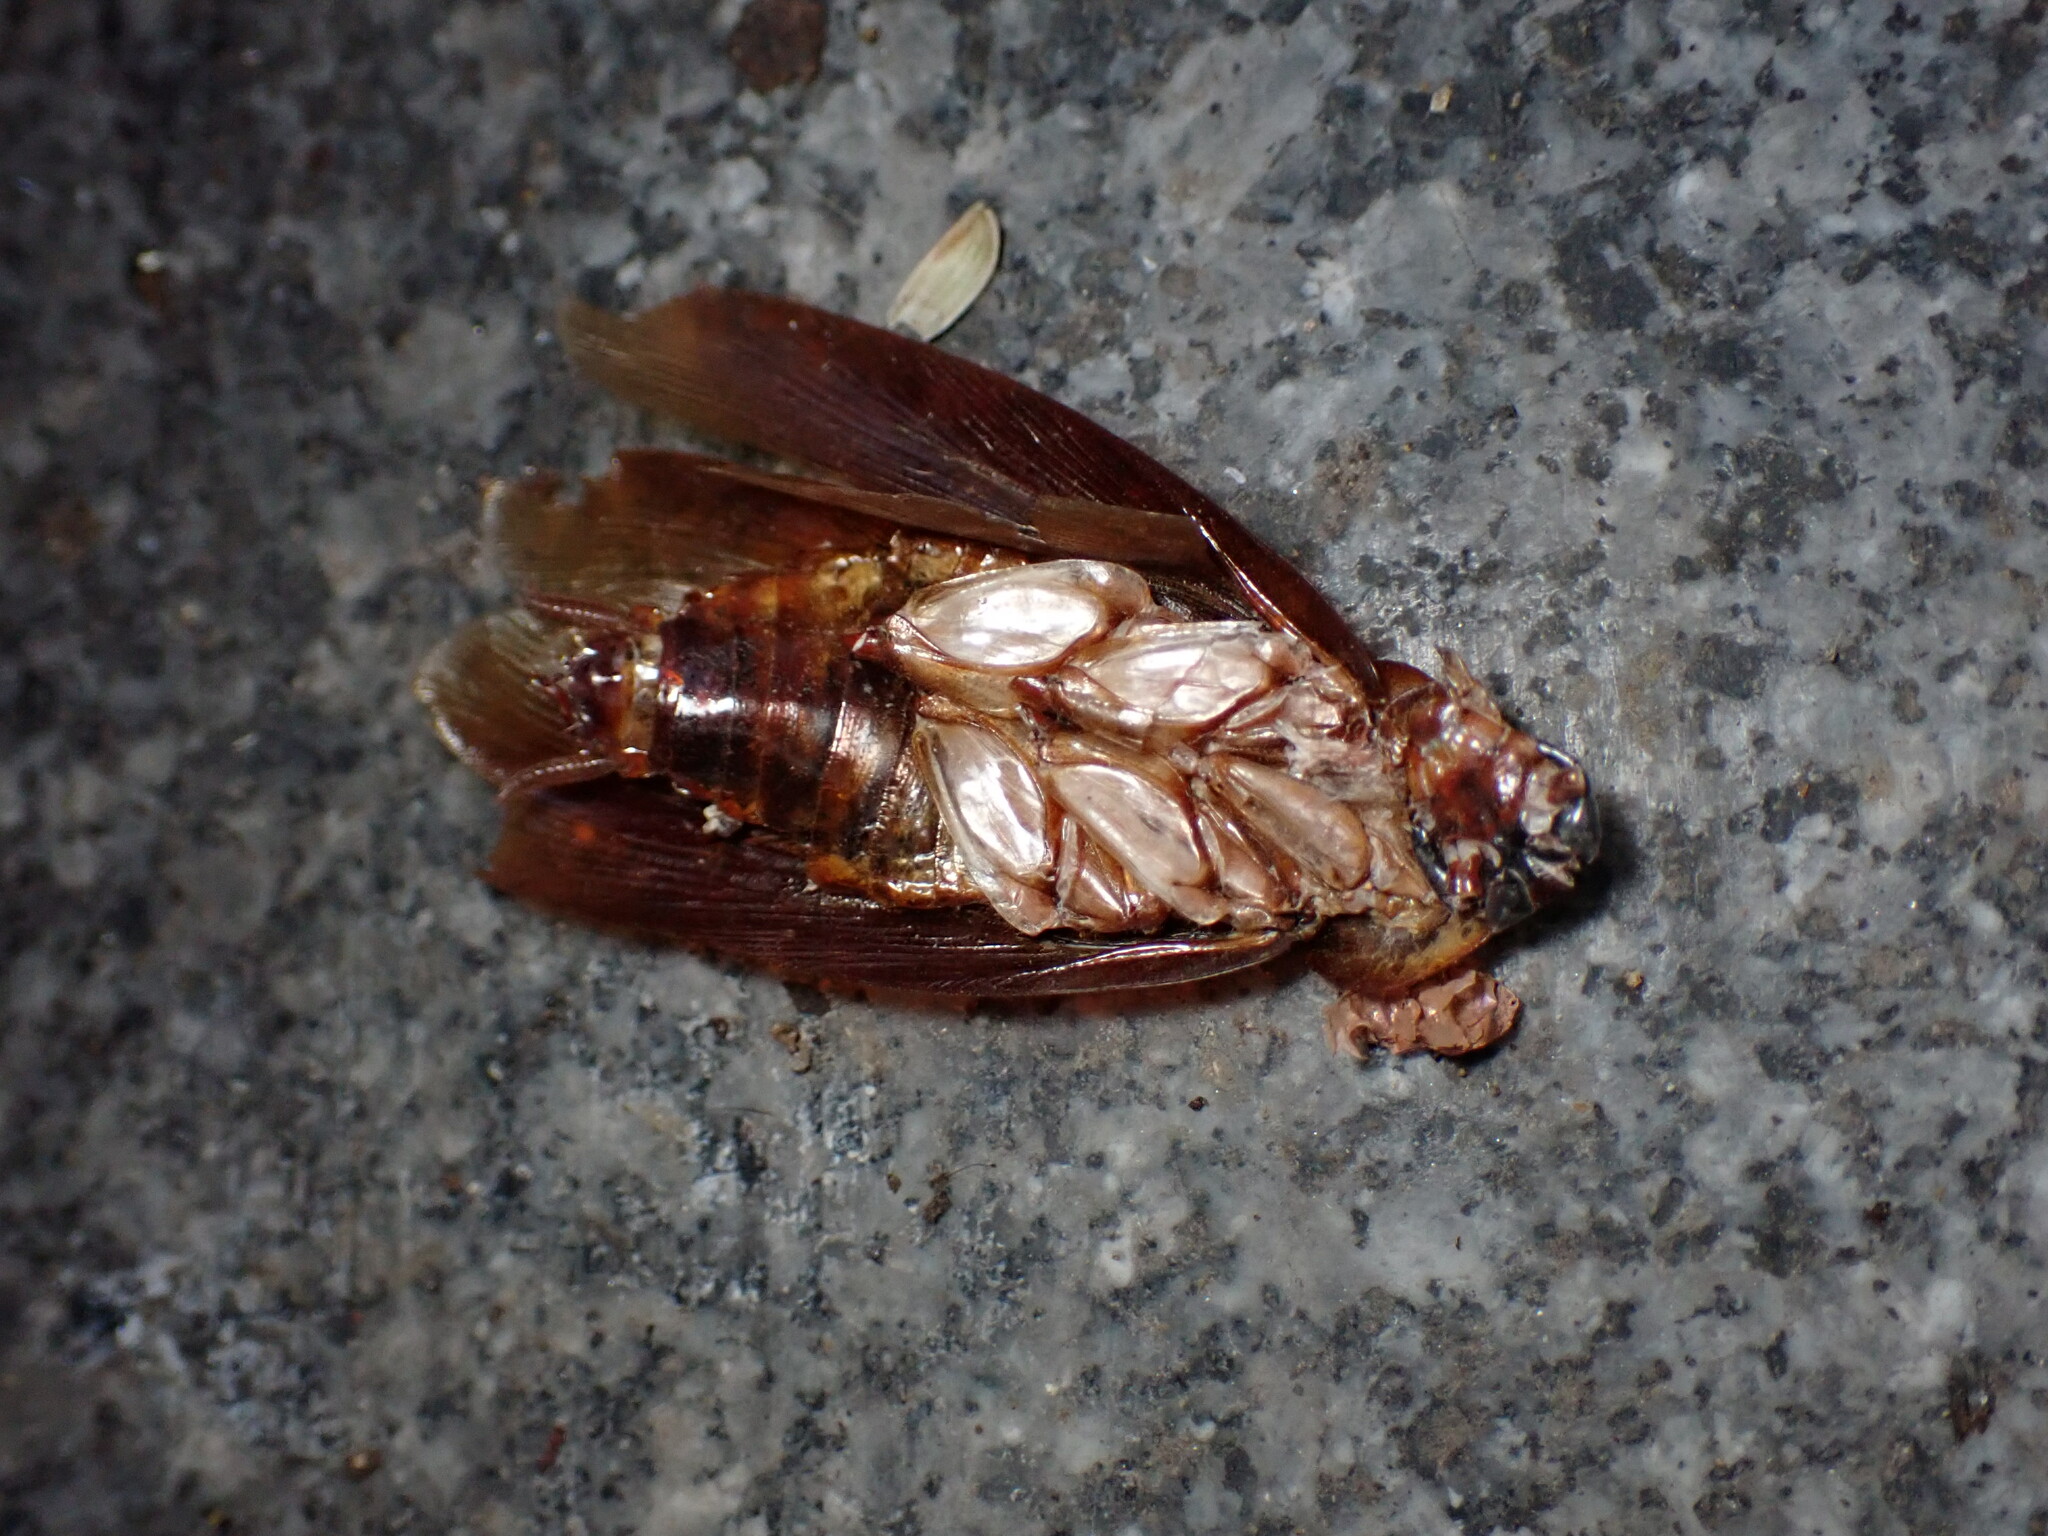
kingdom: Animalia
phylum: Arthropoda
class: Insecta
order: Blattodea
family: Blattidae
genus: Periplaneta
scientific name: Periplaneta americana
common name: American cockroach
